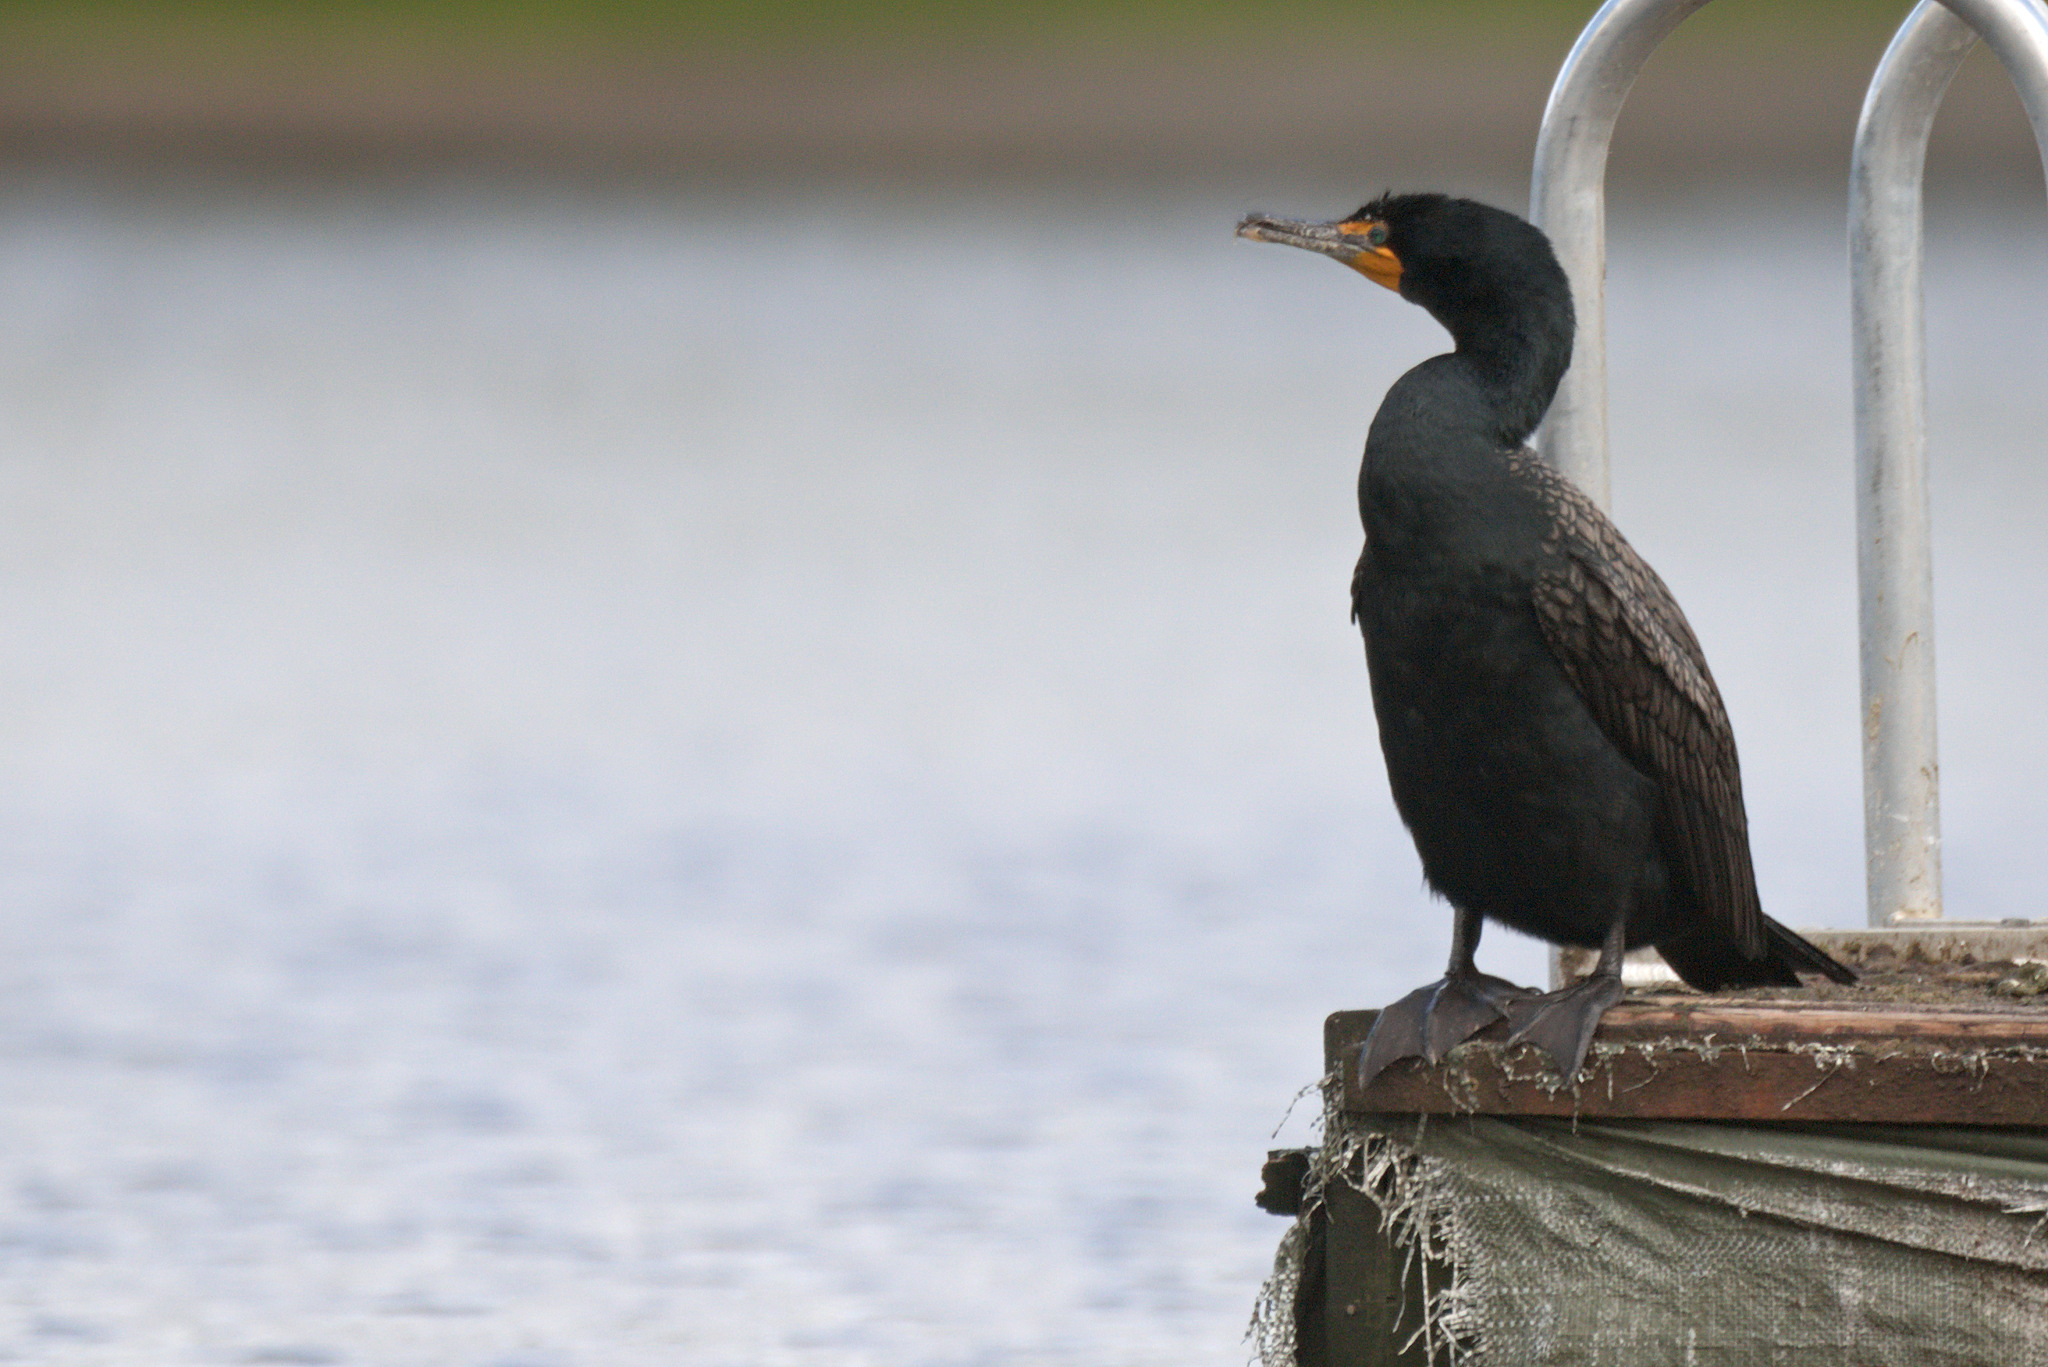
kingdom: Animalia
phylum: Chordata
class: Aves
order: Suliformes
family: Phalacrocoracidae
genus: Phalacrocorax
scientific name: Phalacrocorax auritus
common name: Double-crested cormorant
